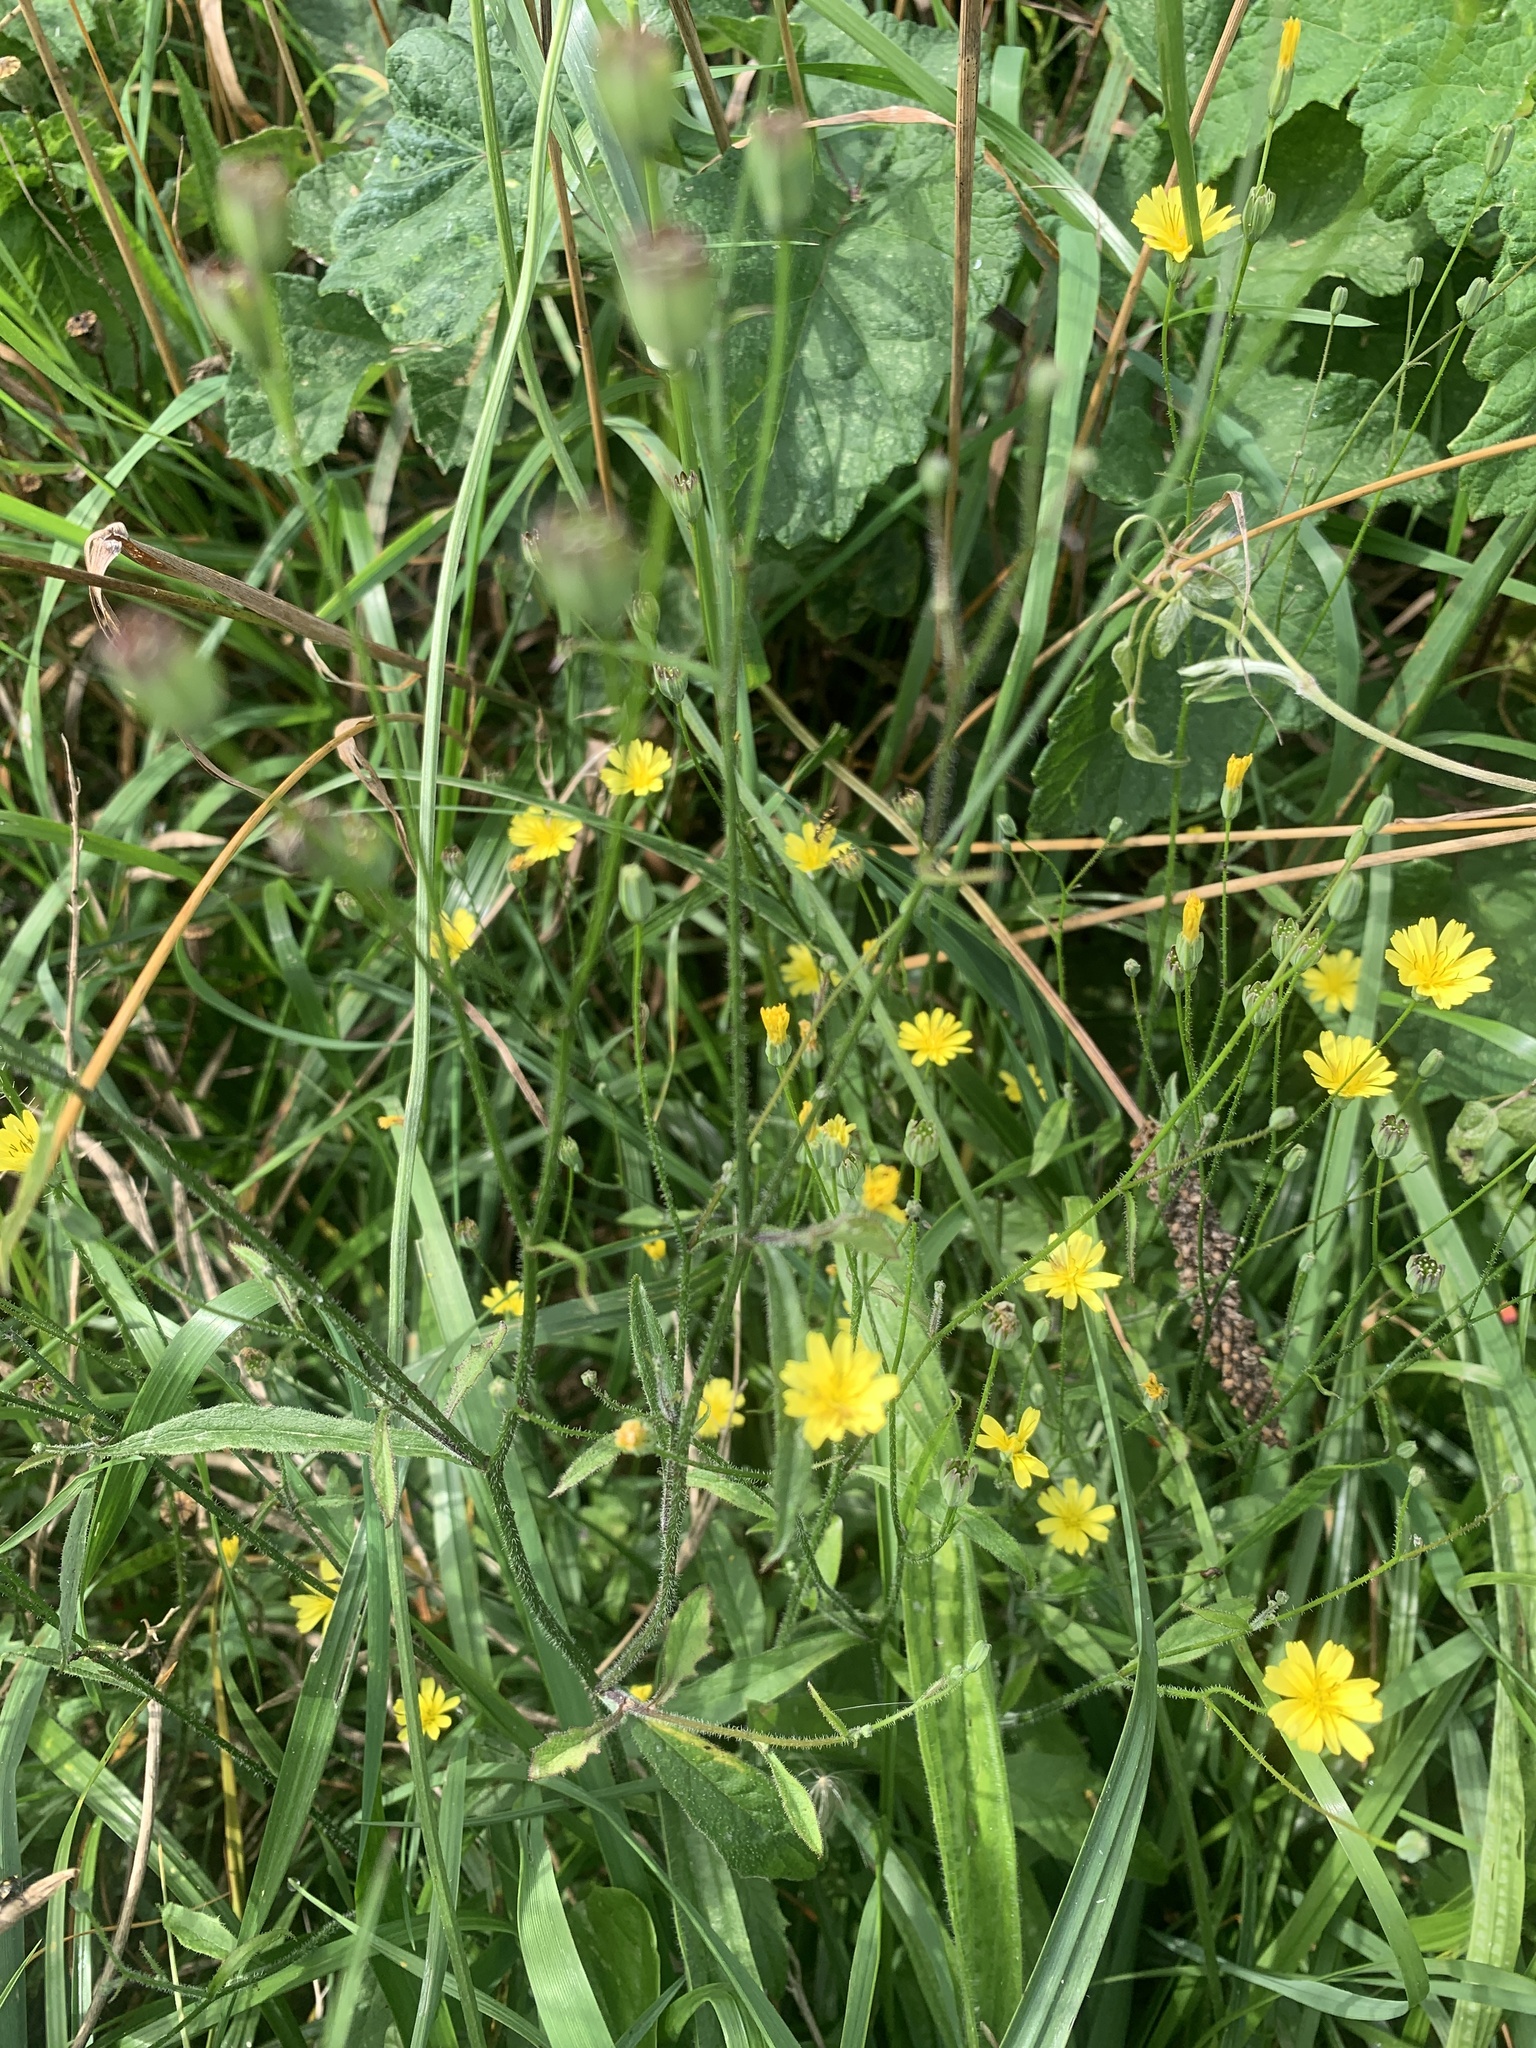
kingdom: Plantae
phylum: Tracheophyta
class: Magnoliopsida
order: Asterales
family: Asteraceae
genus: Lapsana
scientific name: Lapsana communis
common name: Nipplewort
